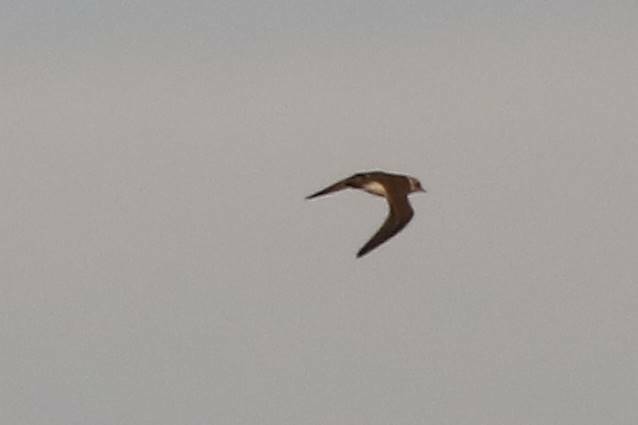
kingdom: Animalia
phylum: Chordata
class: Aves
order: Charadriiformes
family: Charadriidae
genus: Charadrius
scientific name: Charadrius dubius
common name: Little ringed plover
